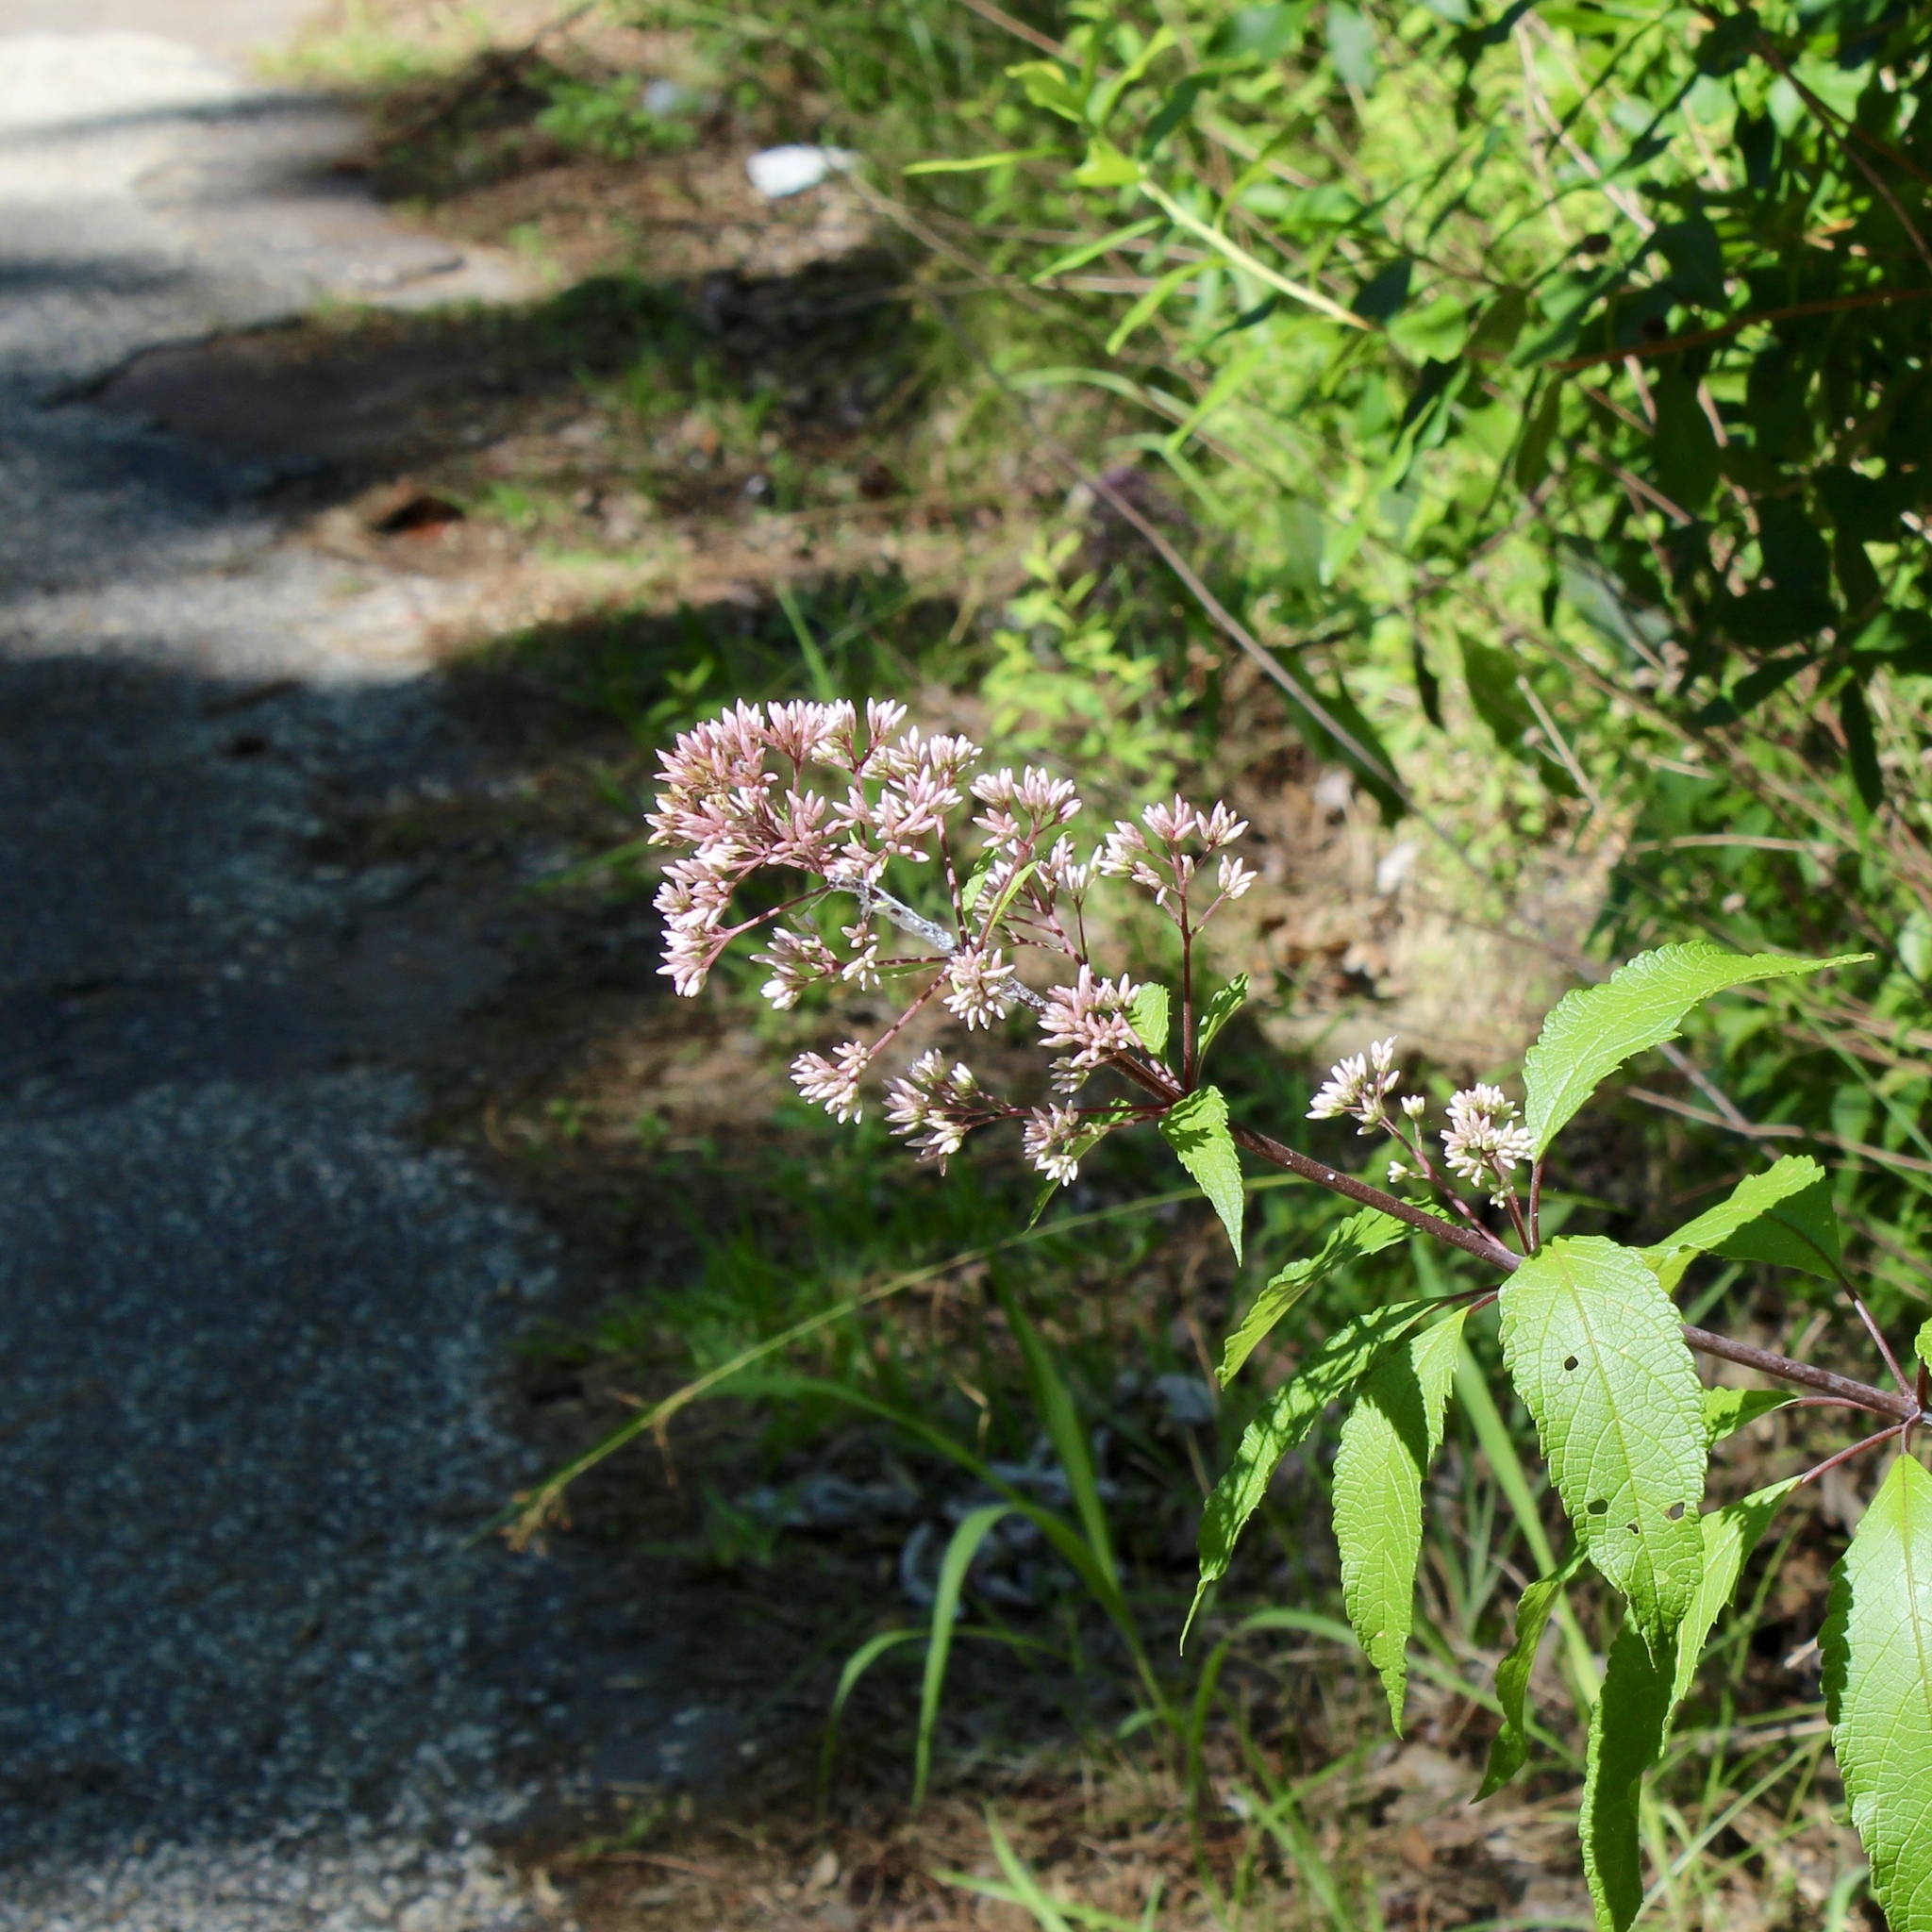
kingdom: Plantae
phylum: Tracheophyta
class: Magnoliopsida
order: Asterales
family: Asteraceae
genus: Eutrochium
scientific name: Eutrochium fistulosum
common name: Trumpetweed
